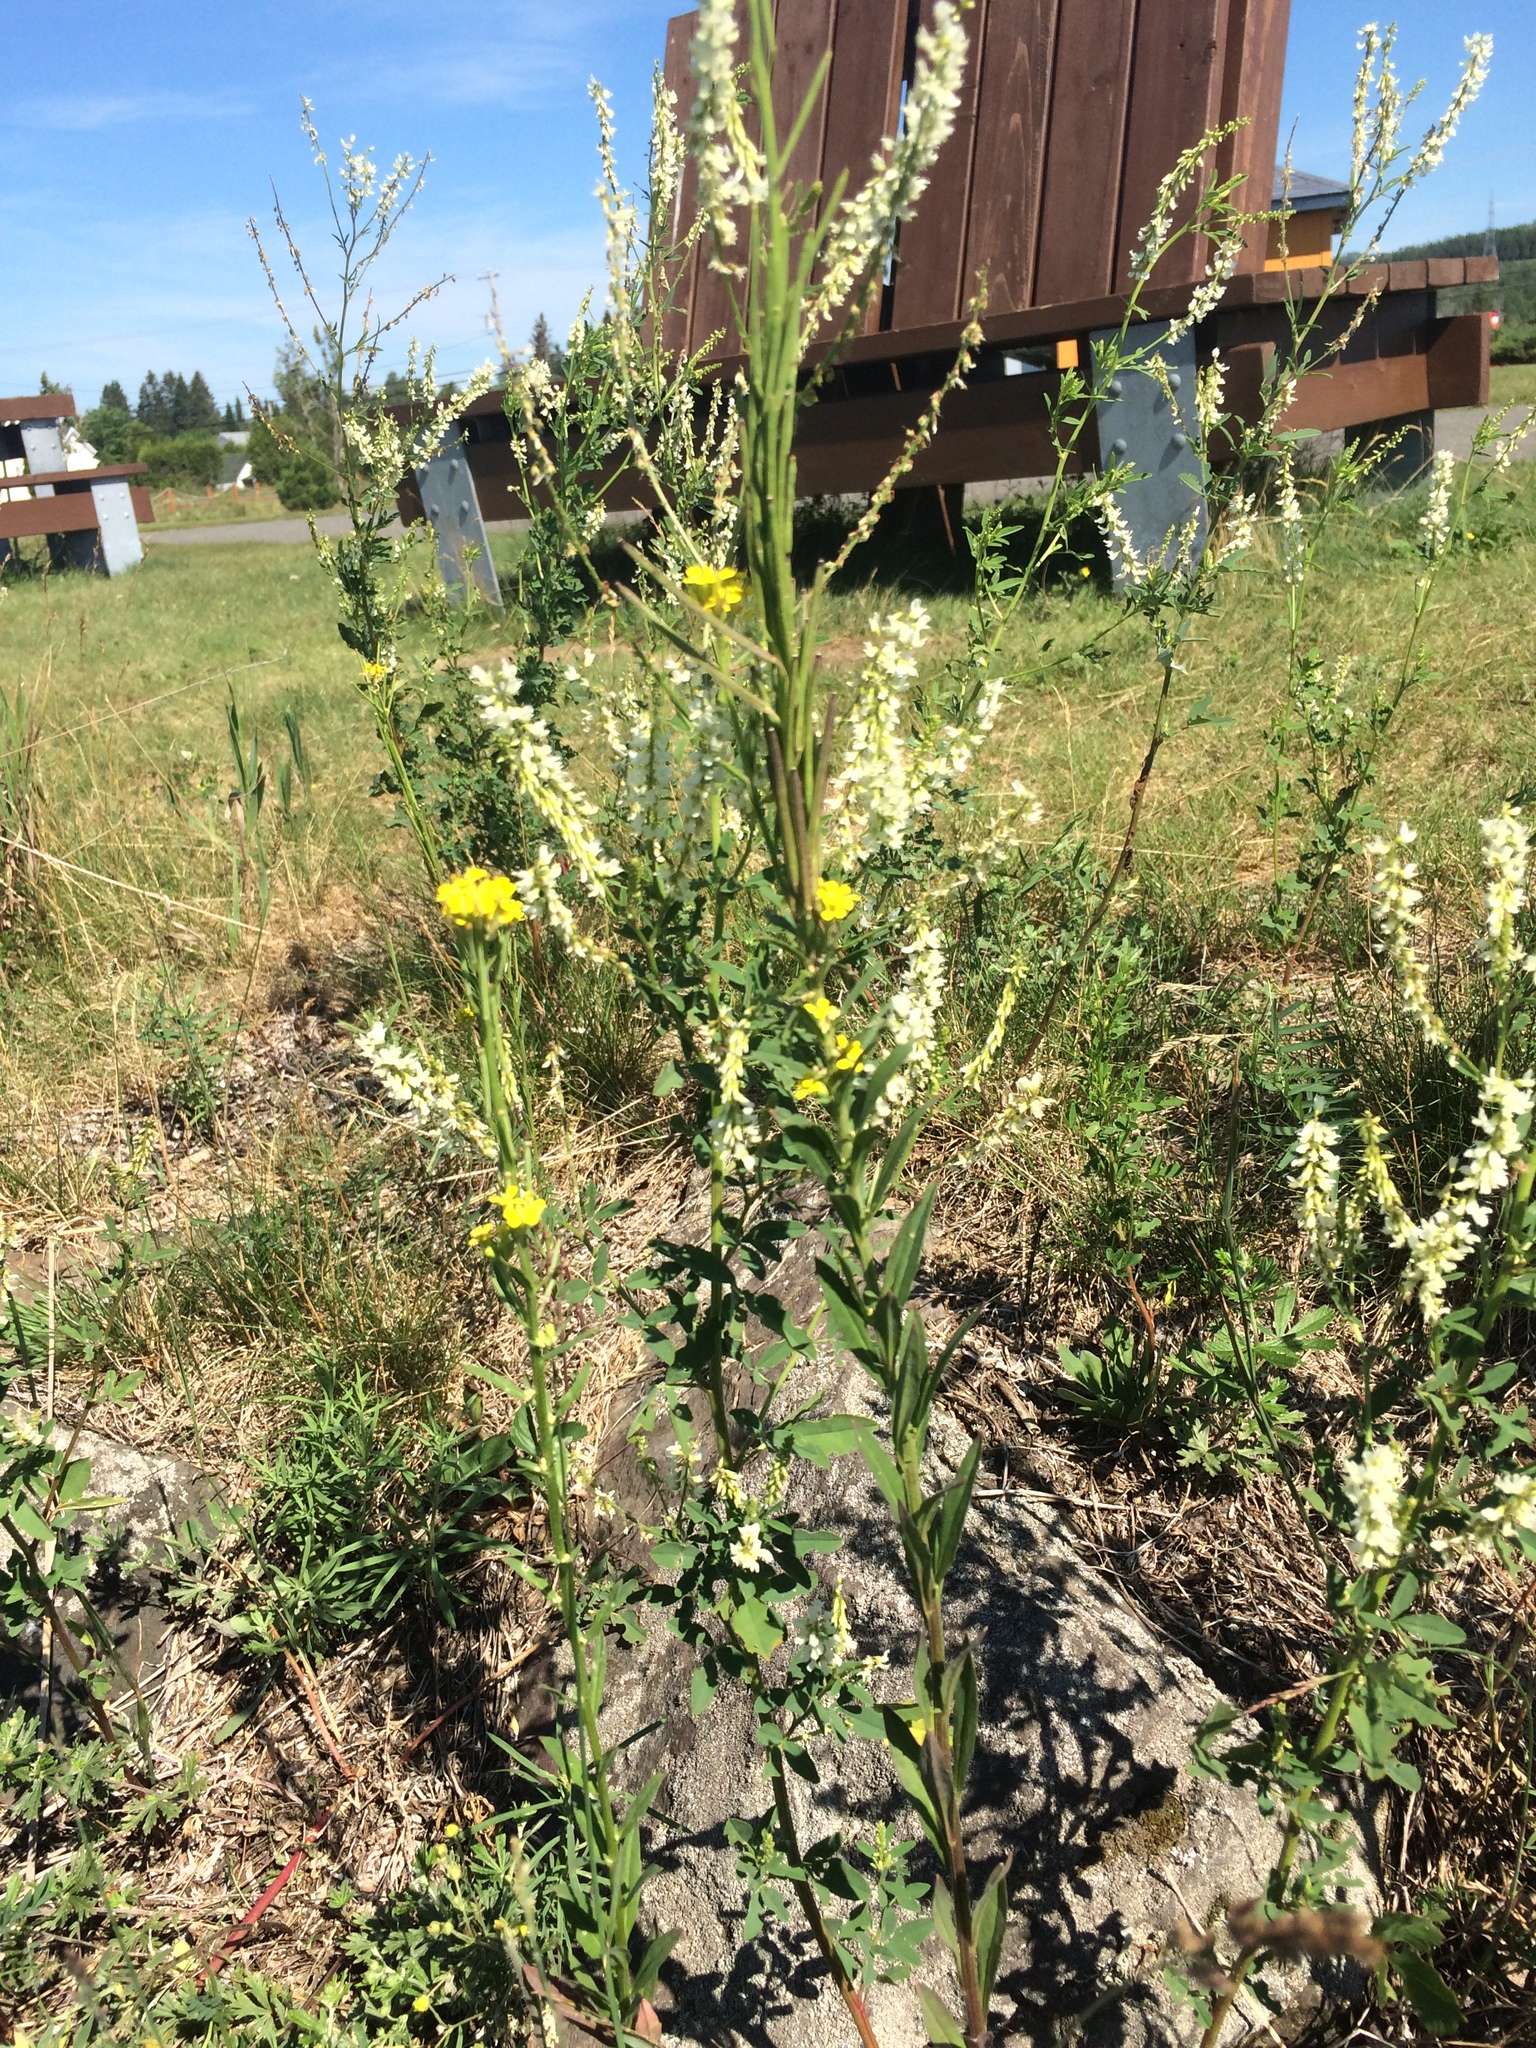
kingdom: Plantae
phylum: Tracheophyta
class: Magnoliopsida
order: Brassicales
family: Brassicaceae
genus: Erysimum
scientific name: Erysimum hieraciifolium
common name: European wallflower
